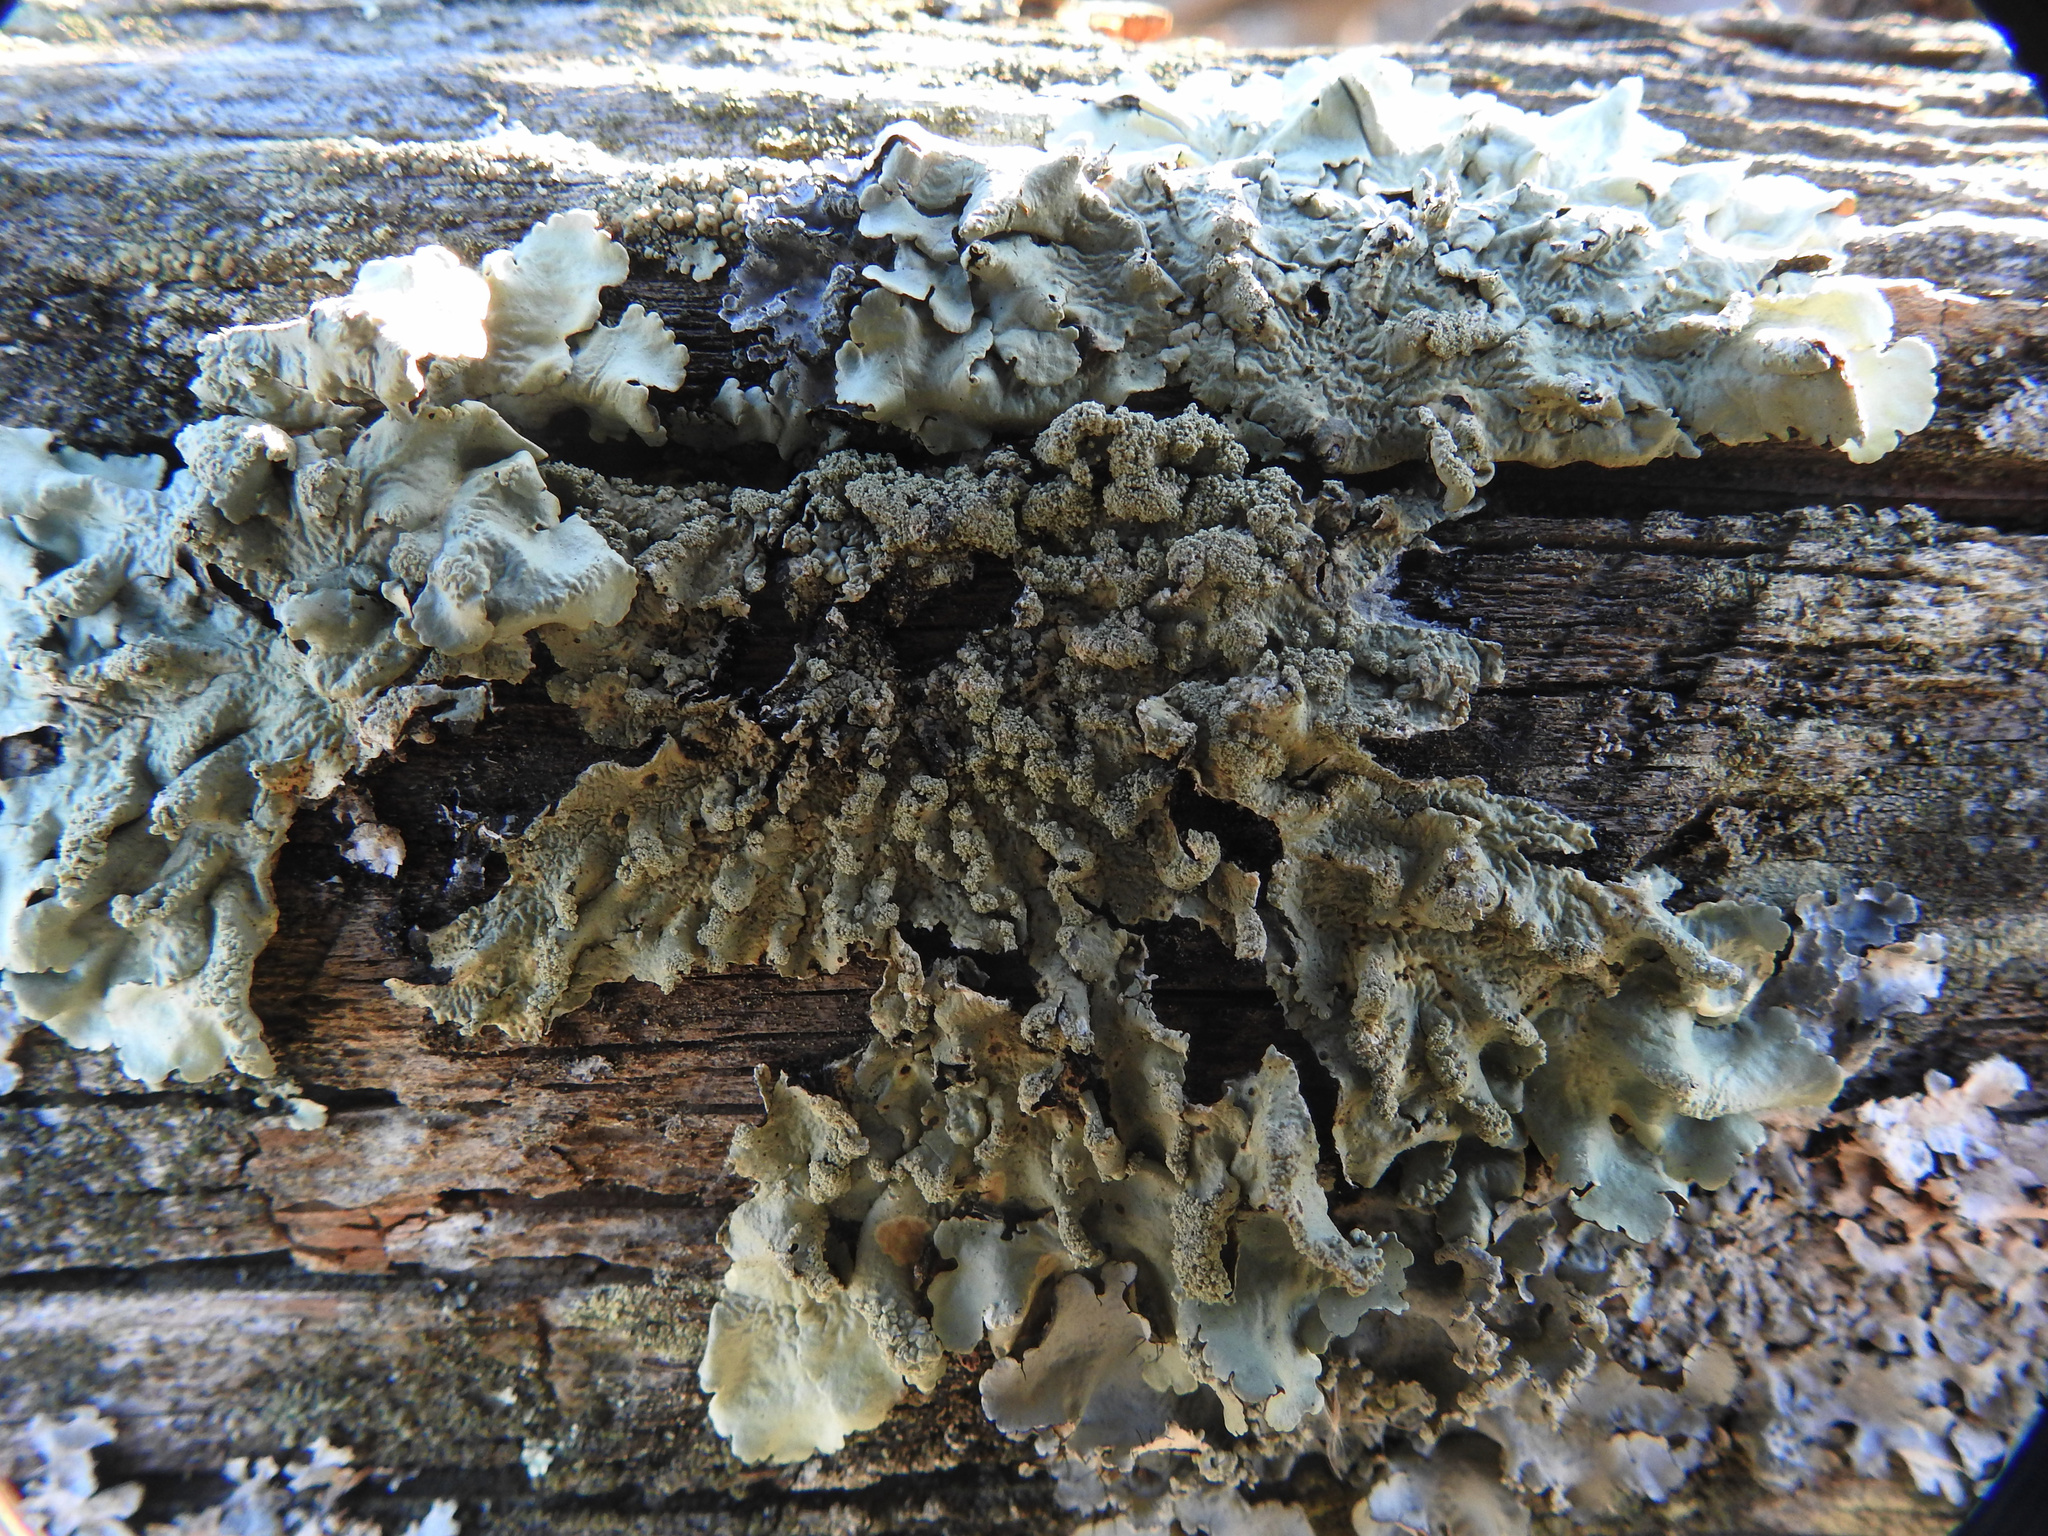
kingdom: Fungi
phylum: Ascomycota
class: Lecanoromycetes
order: Lecanorales
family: Parmeliaceae
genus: Flavoparmelia
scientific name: Flavoparmelia caperata
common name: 40-mile per hour lichen
